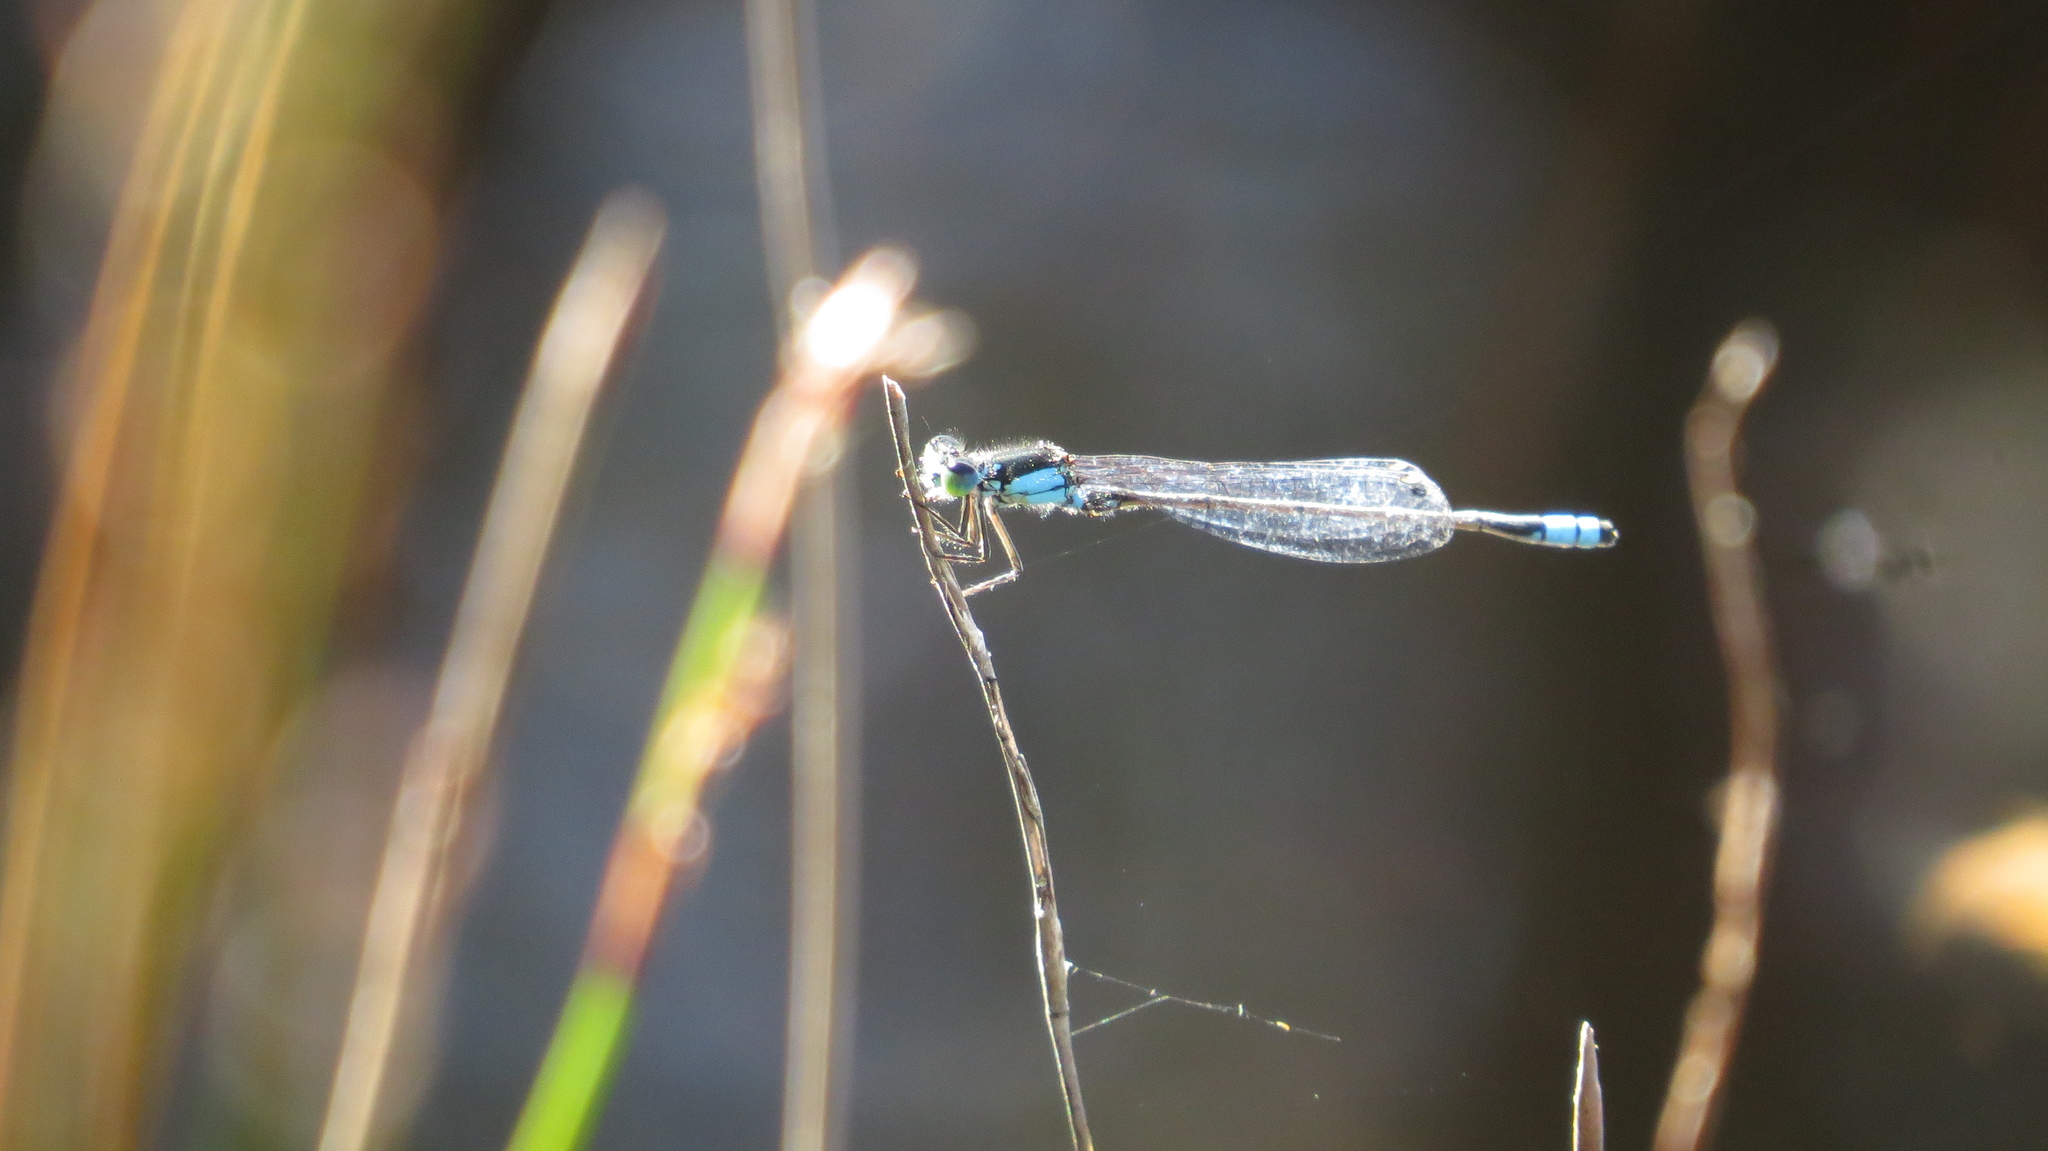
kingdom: Animalia
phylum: Arthropoda
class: Insecta
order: Odonata
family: Coenagrionidae
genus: Ischnura
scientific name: Ischnura heterosticta
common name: Common bluetail
